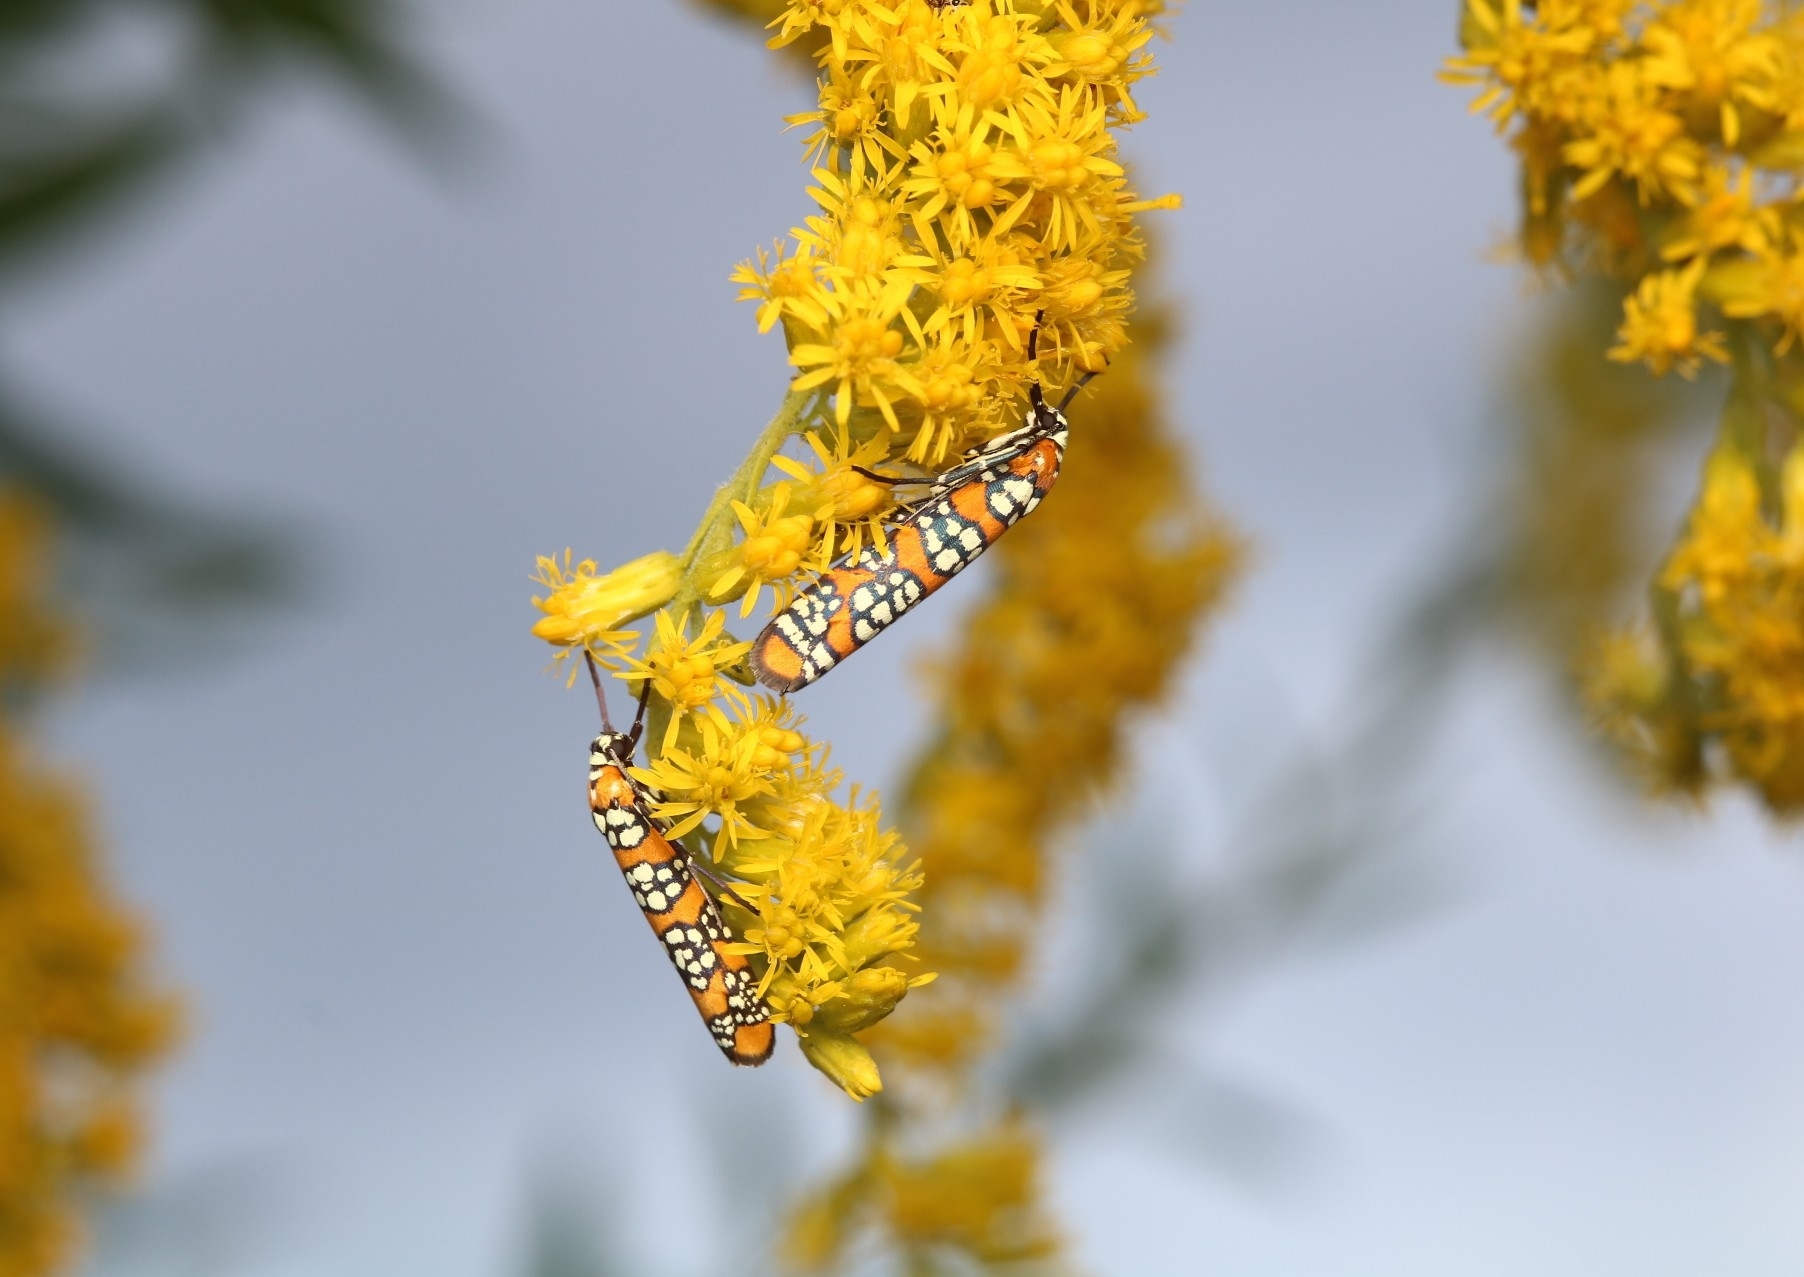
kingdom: Animalia
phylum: Arthropoda
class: Insecta
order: Lepidoptera
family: Attevidae
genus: Atteva
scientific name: Atteva punctella
